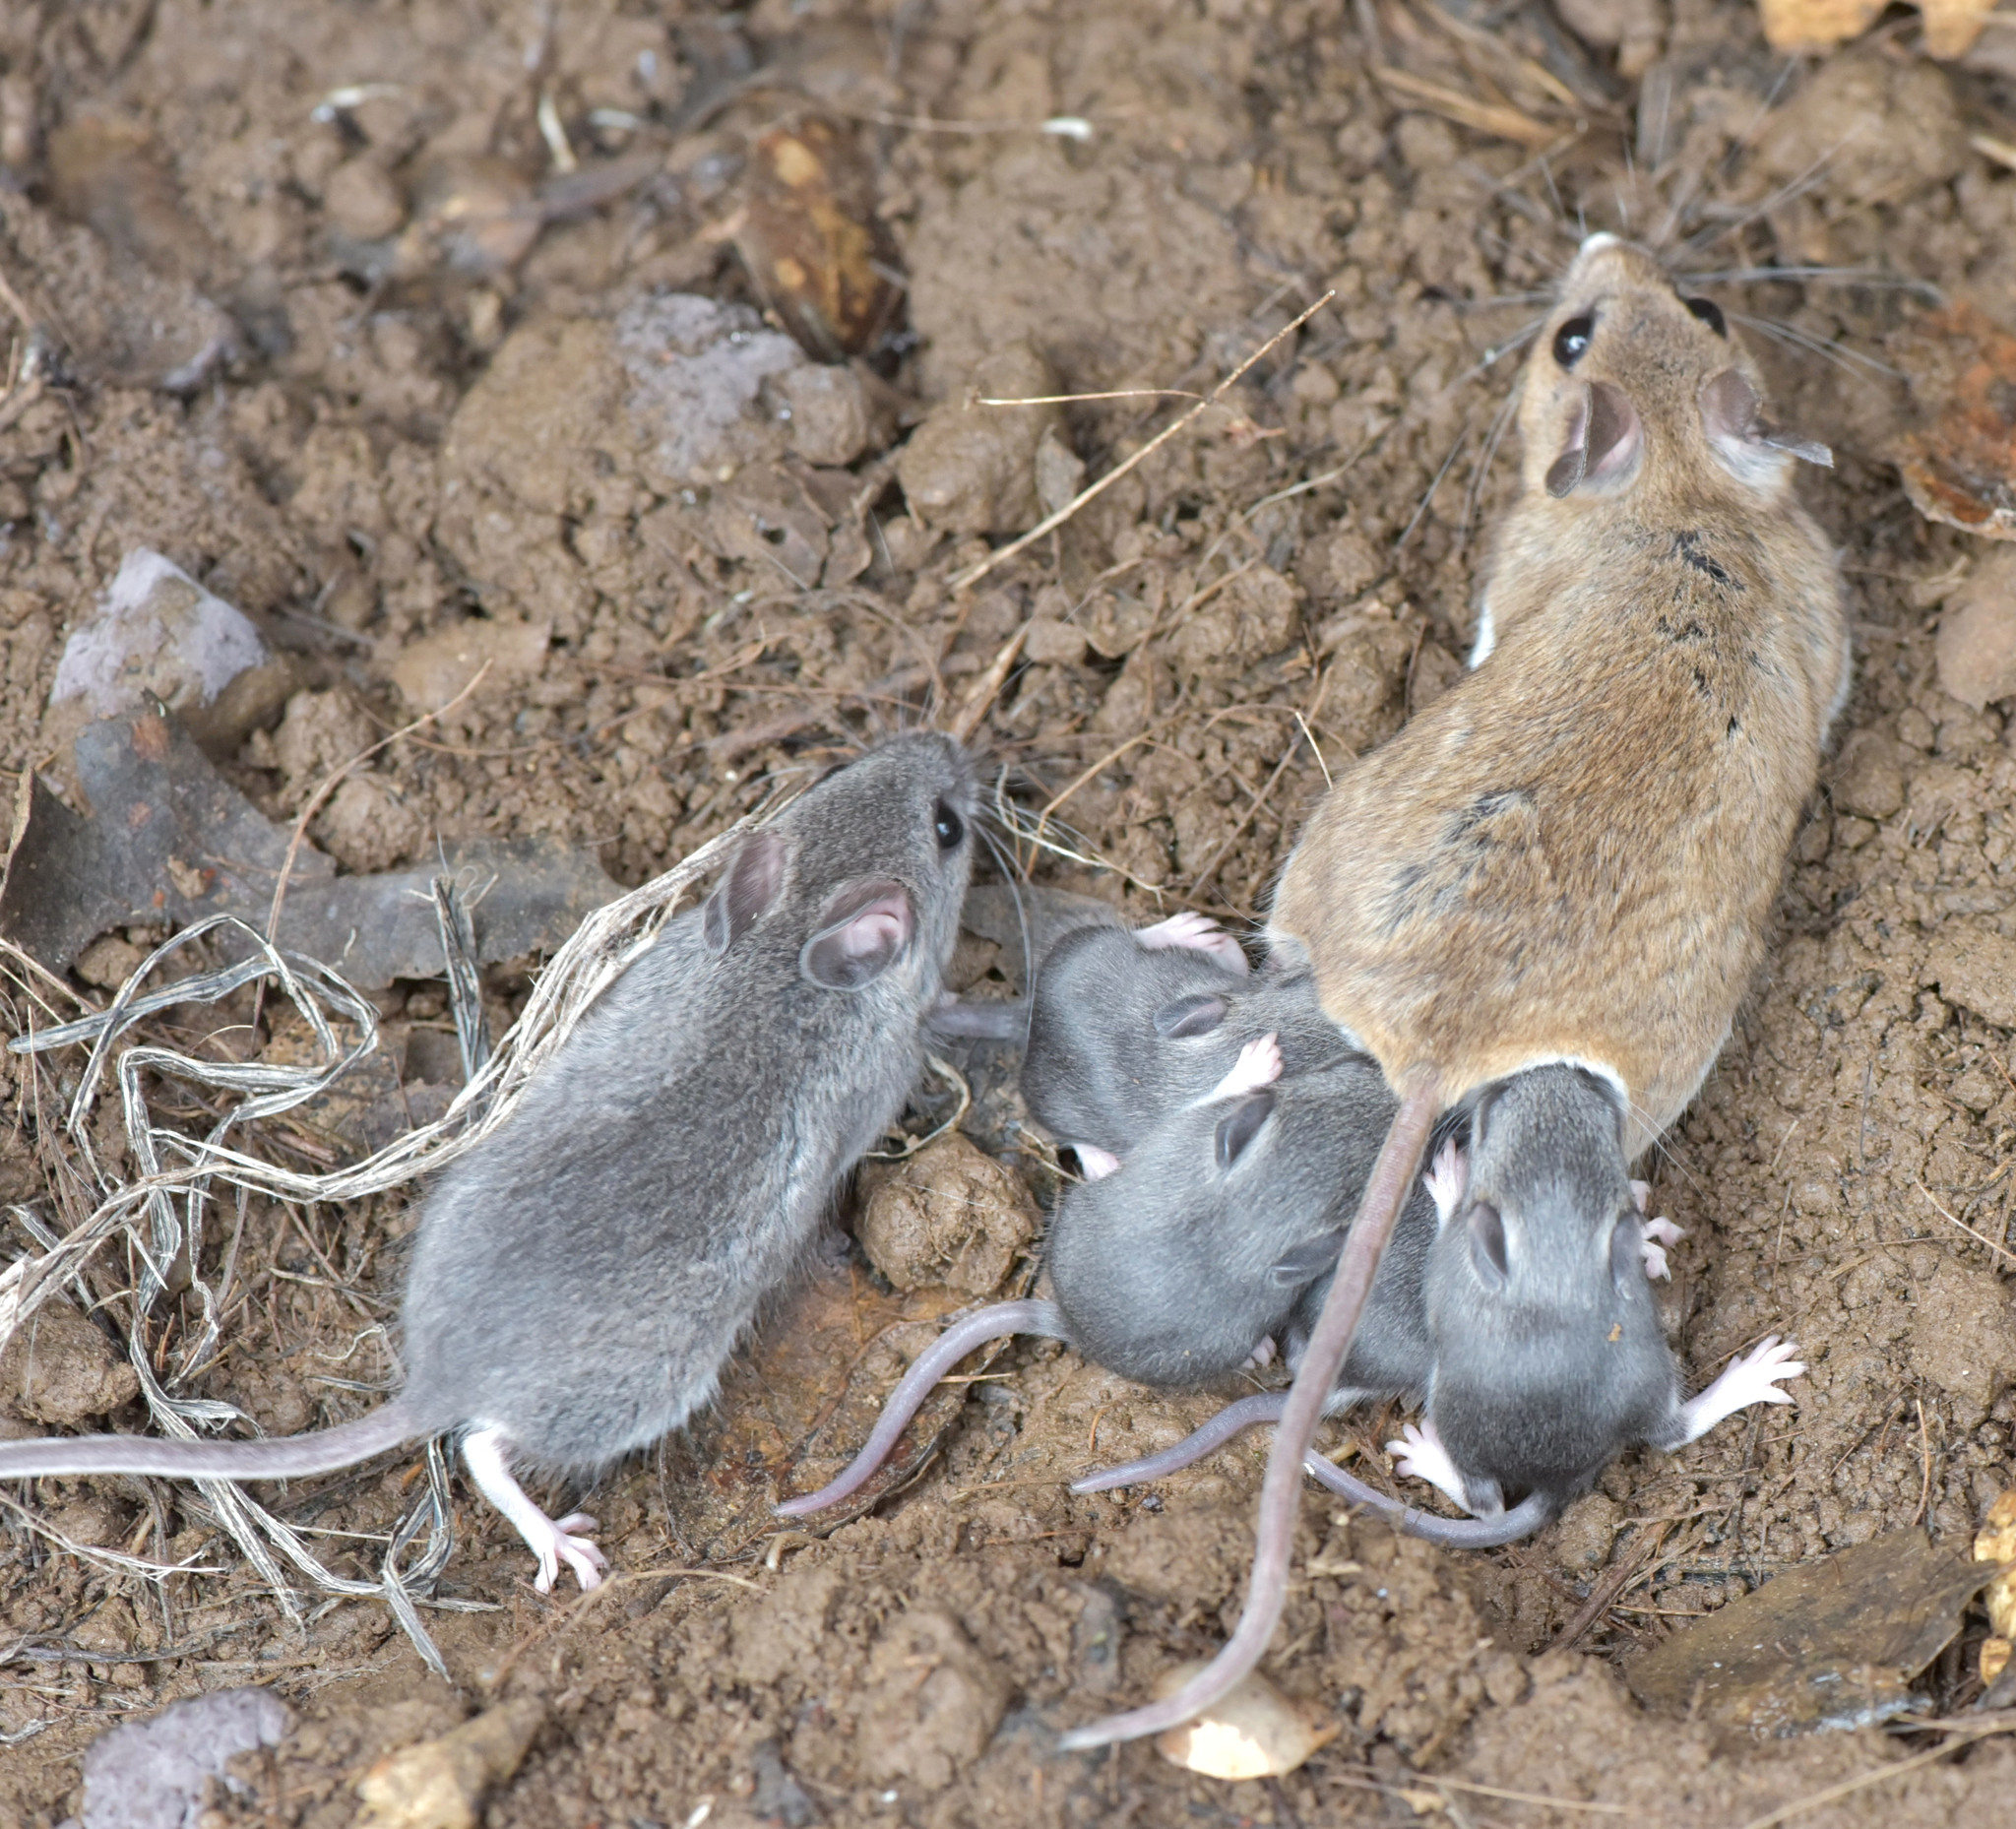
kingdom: Animalia
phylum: Chordata
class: Mammalia
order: Rodentia
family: Cricetidae
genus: Peromyscus
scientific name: Peromyscus maniculatus
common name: Deer mouse
